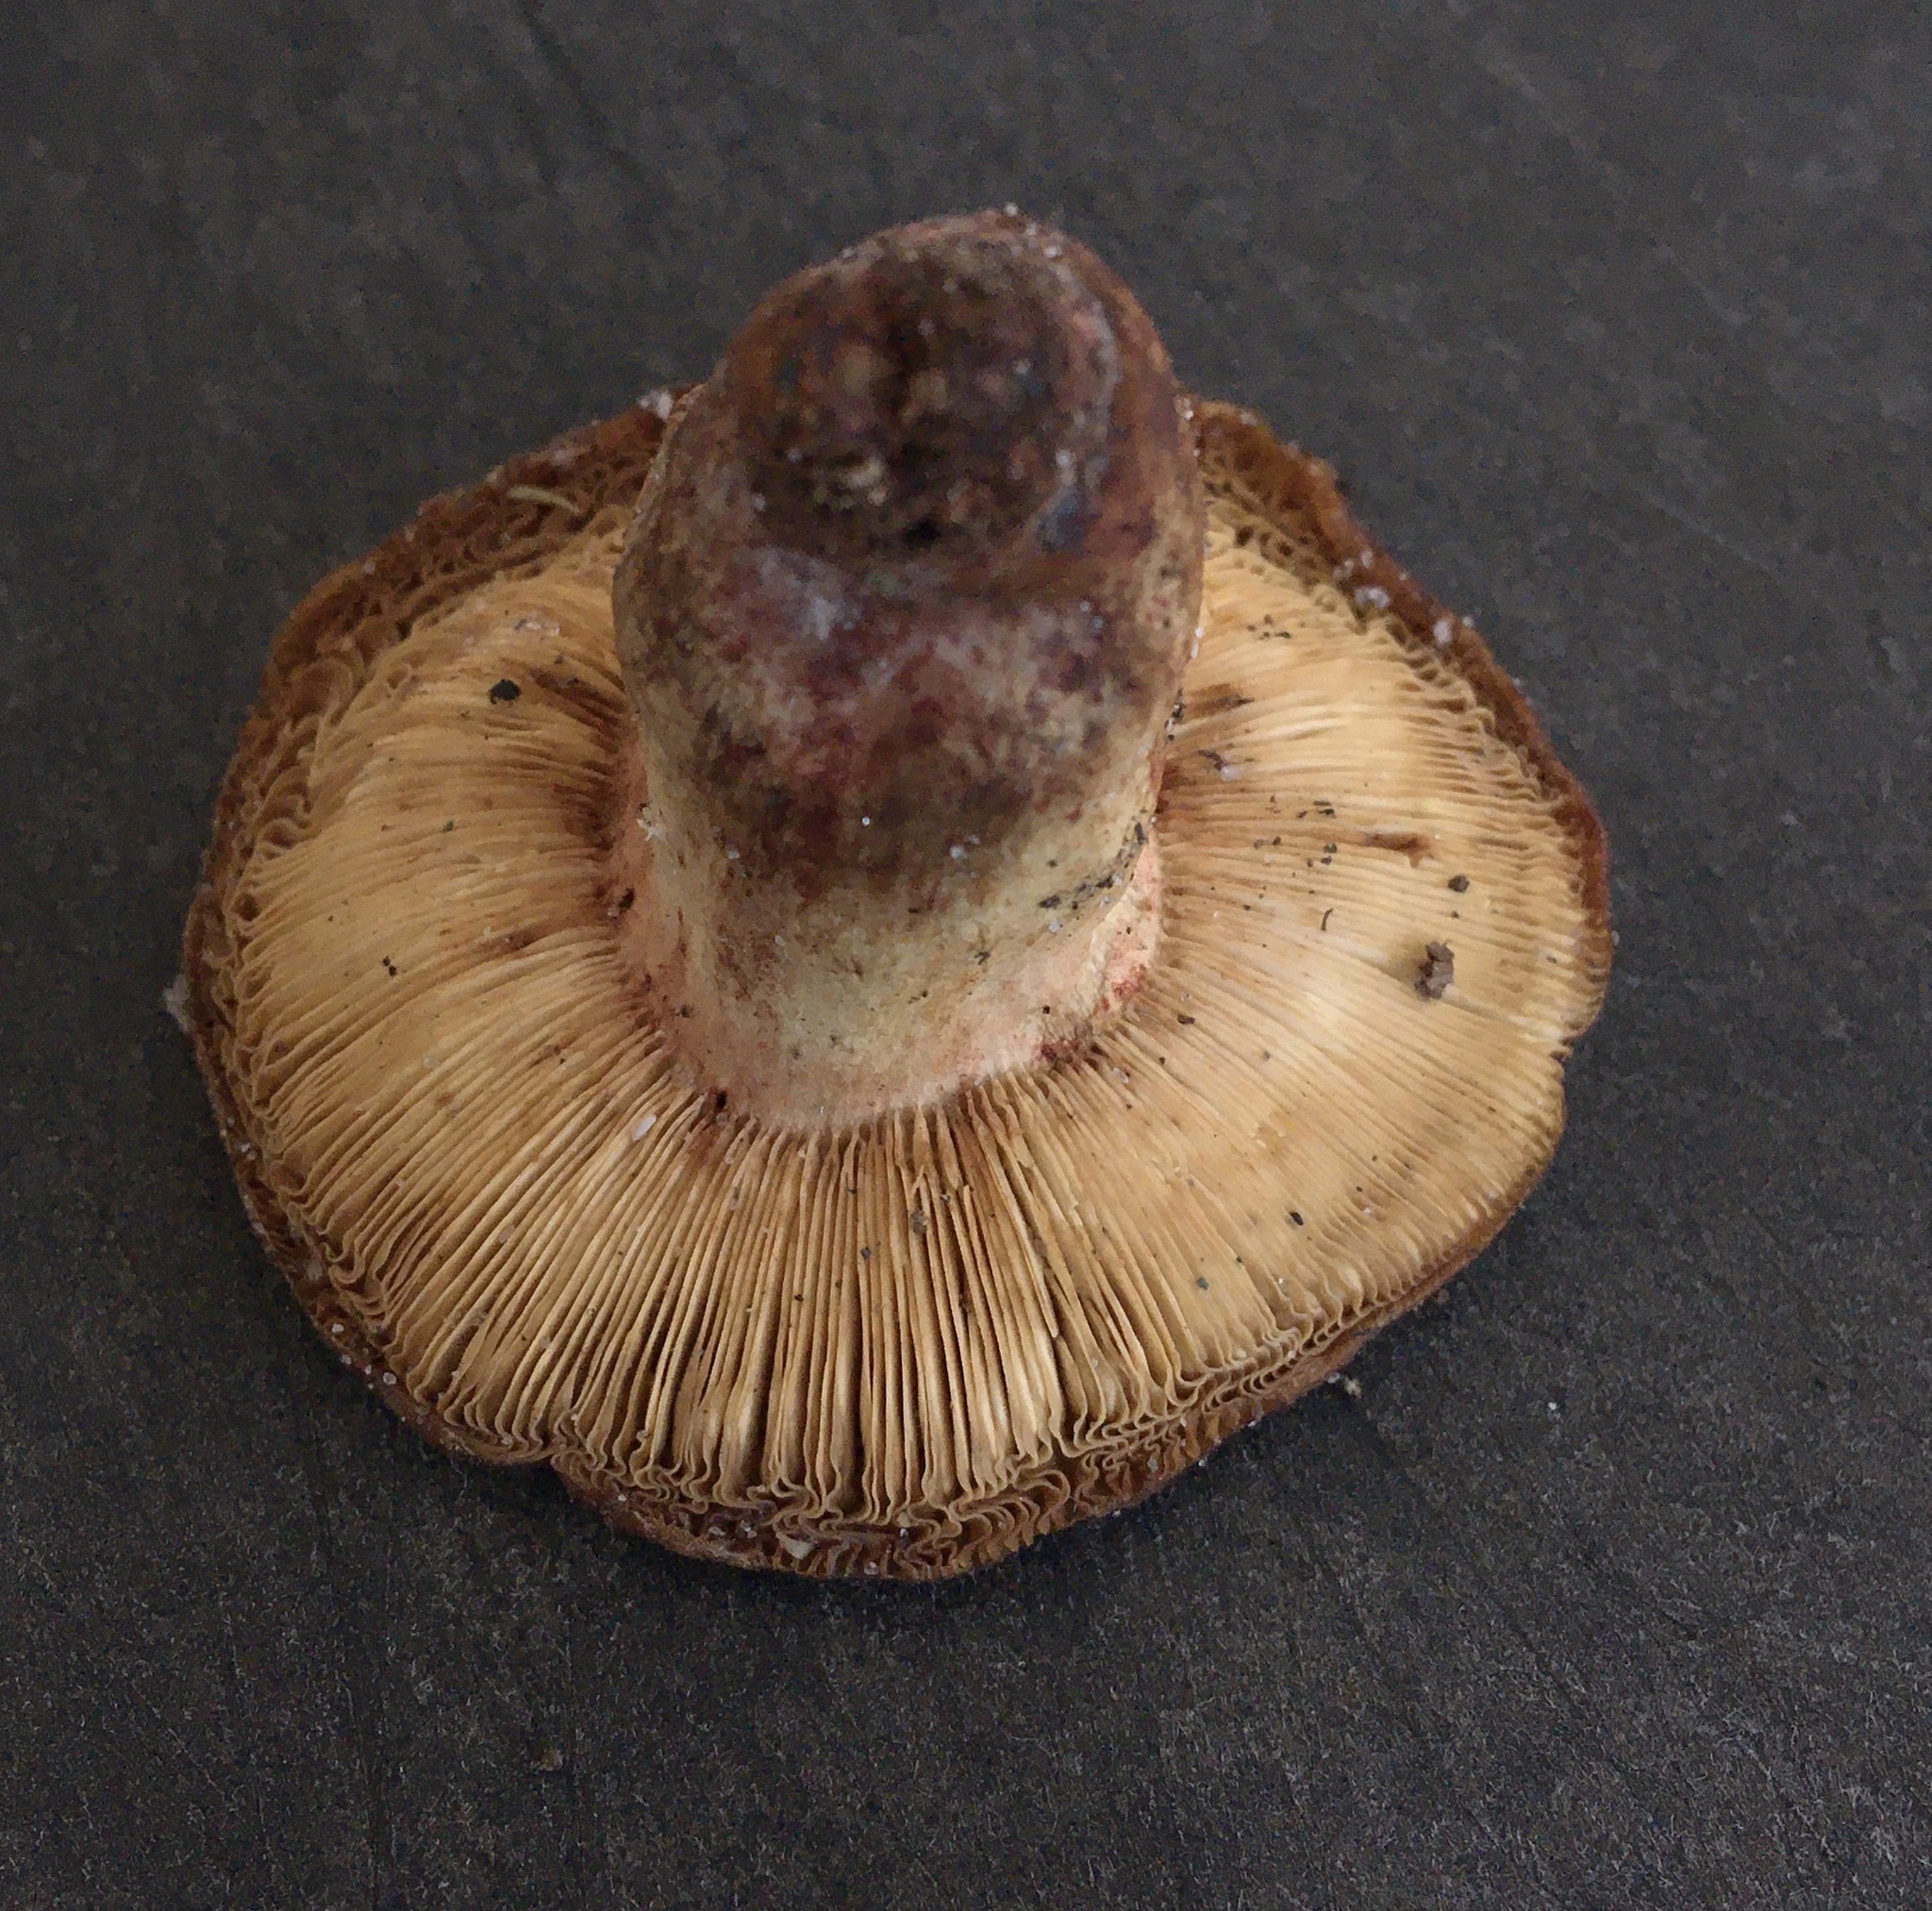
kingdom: Fungi
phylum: Basidiomycota
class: Agaricomycetes
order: Russulales
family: Russulaceae
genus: Russula
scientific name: Russula ventricosipes
